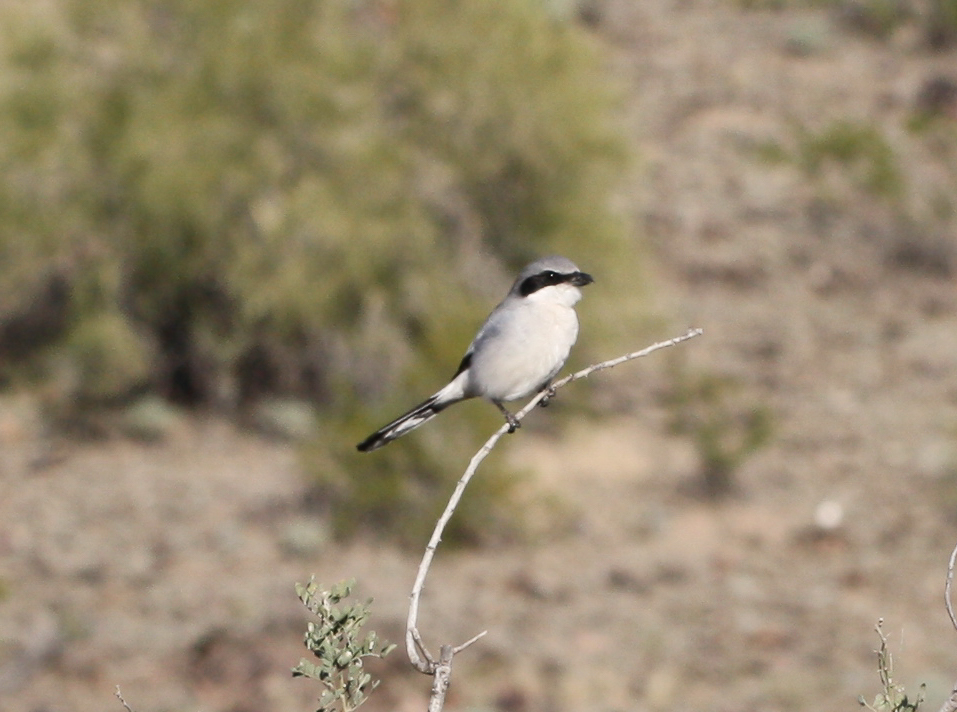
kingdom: Animalia
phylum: Chordata
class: Aves
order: Passeriformes
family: Laniidae
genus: Lanius
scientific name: Lanius ludovicianus
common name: Loggerhead shrike
